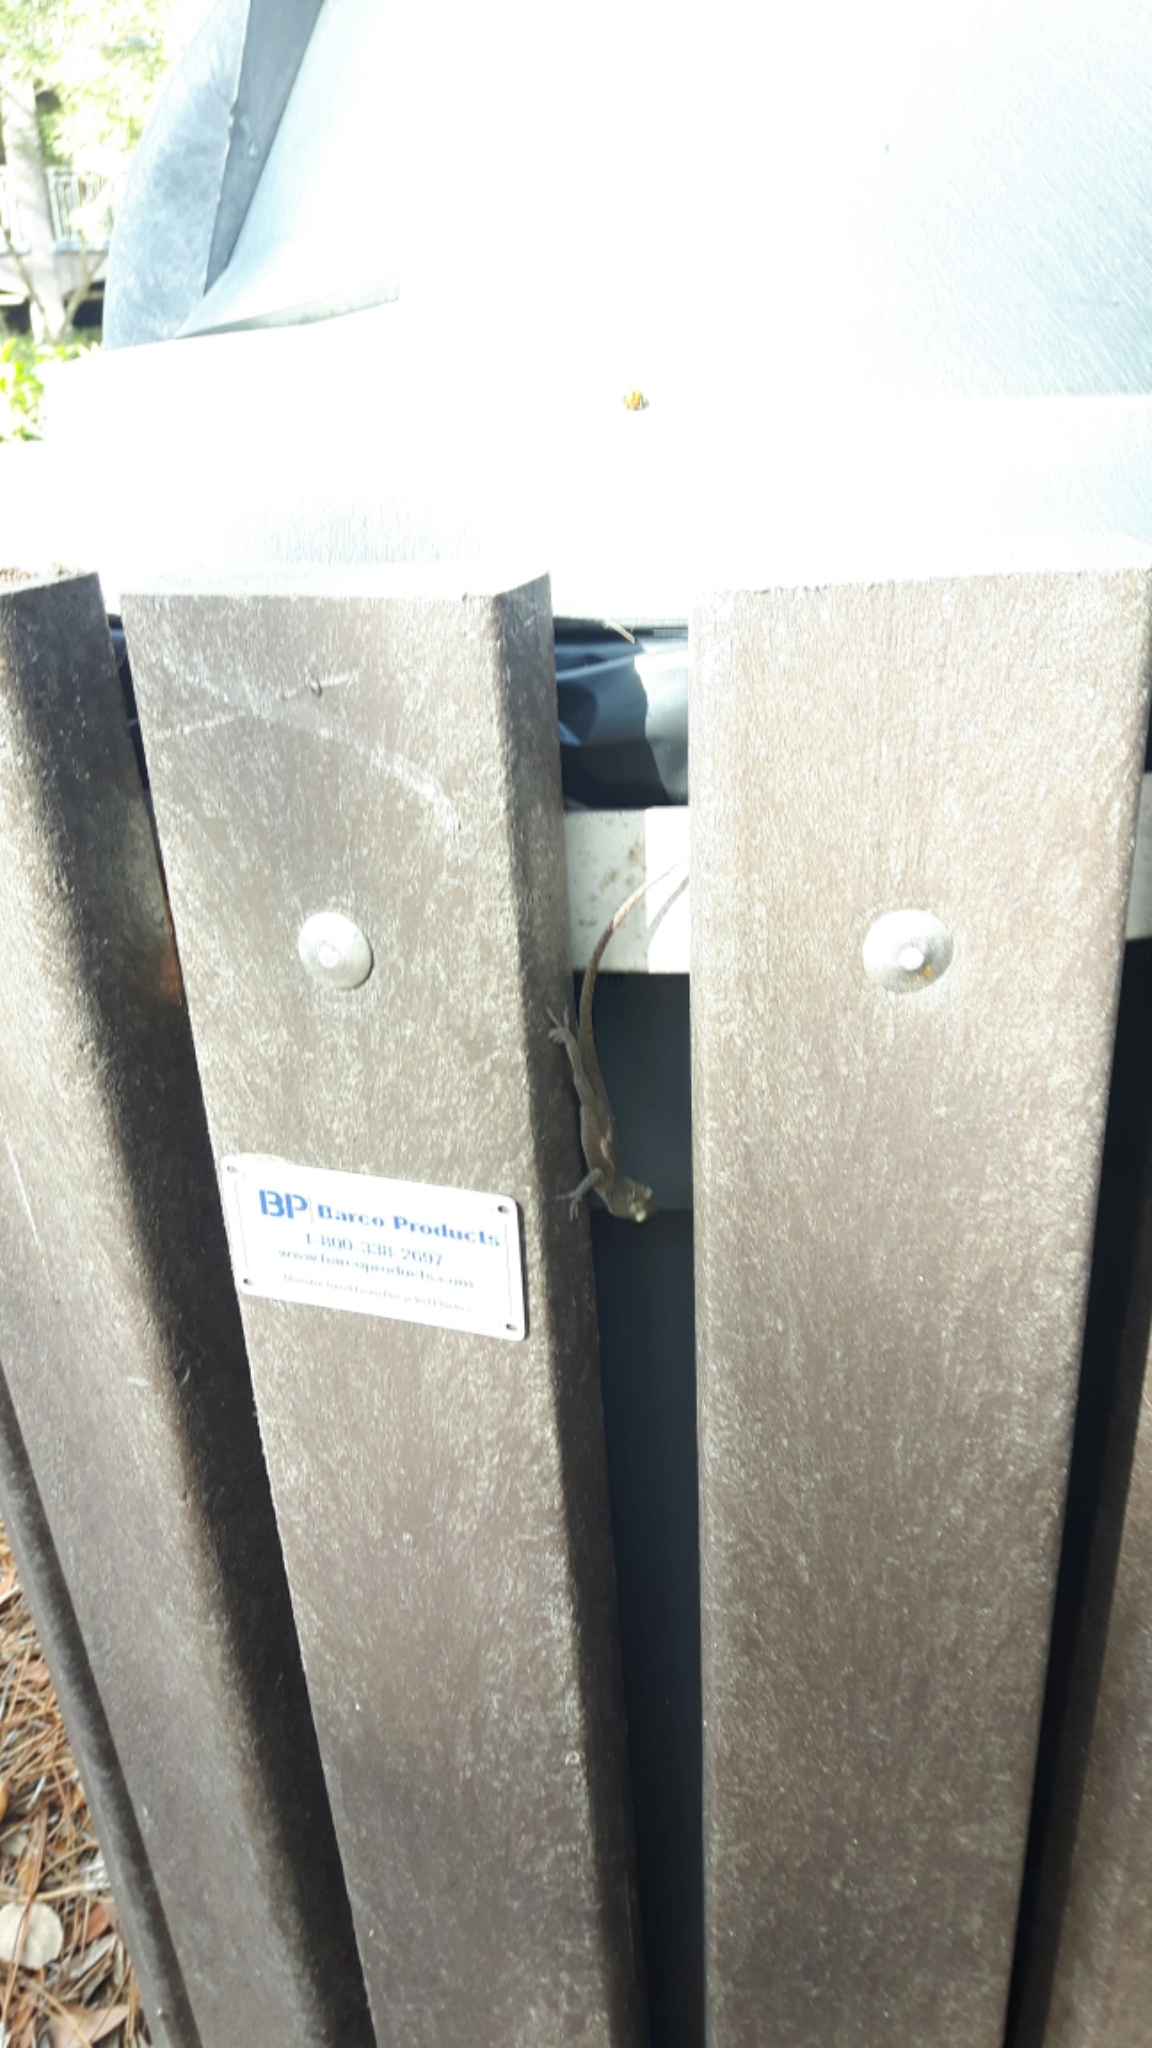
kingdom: Animalia
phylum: Chordata
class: Squamata
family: Dactyloidae
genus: Anolis
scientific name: Anolis carolinensis
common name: Green anole
